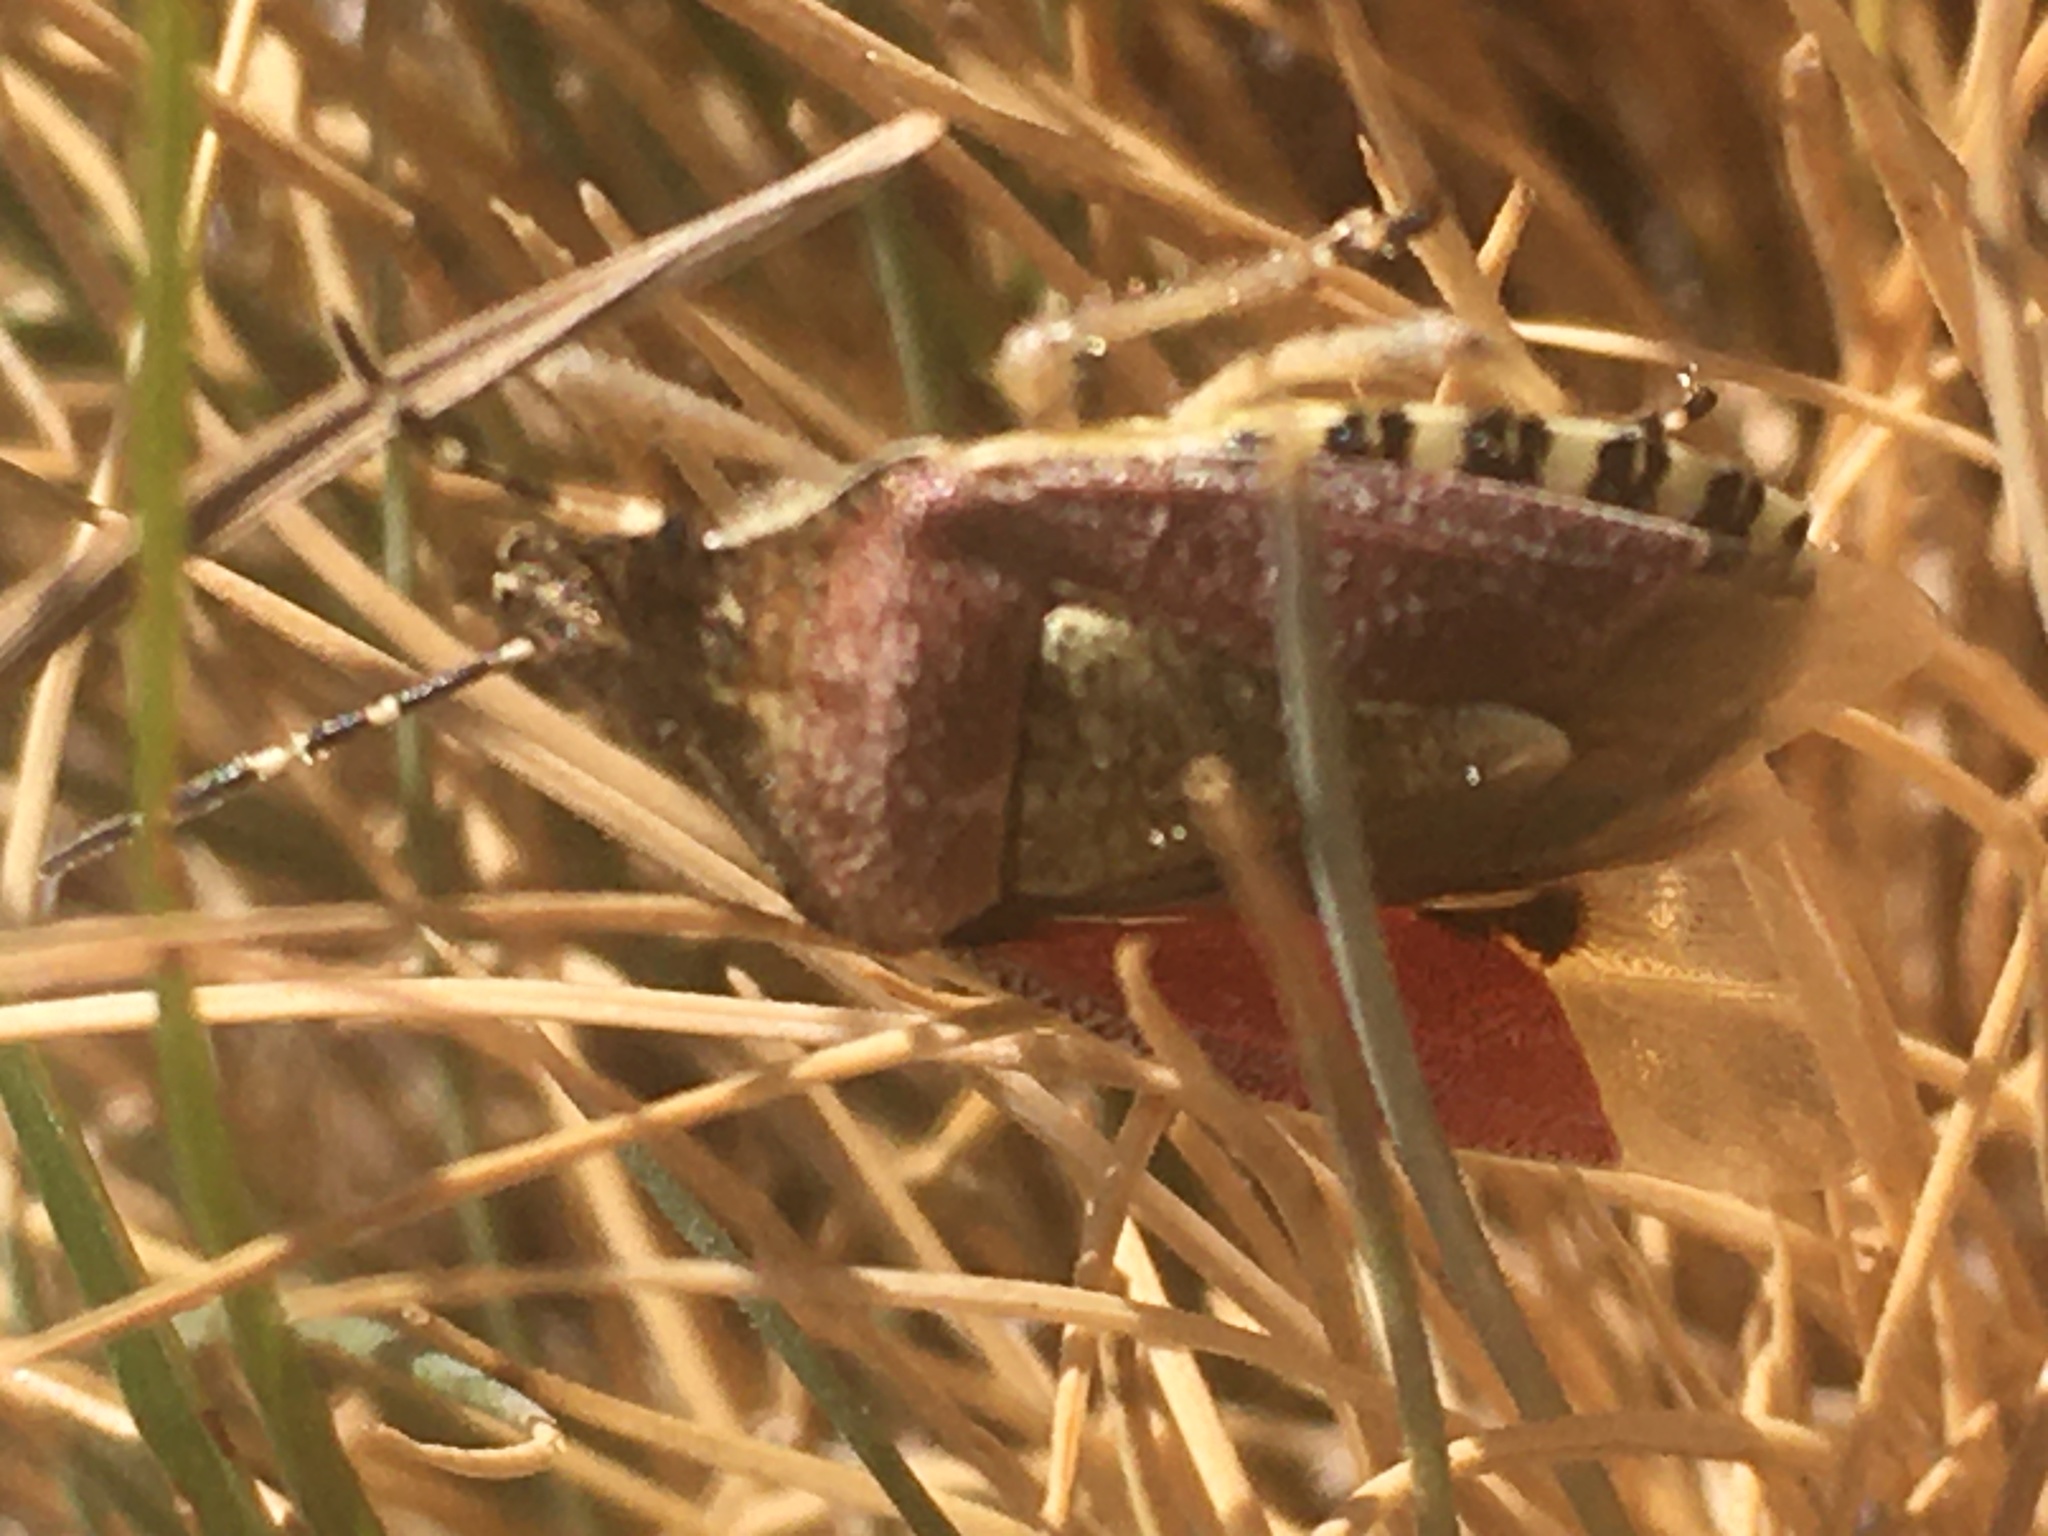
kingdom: Animalia
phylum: Arthropoda
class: Insecta
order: Hemiptera
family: Pentatomidae
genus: Dolycoris
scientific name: Dolycoris baccarum
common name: Sloe bug
